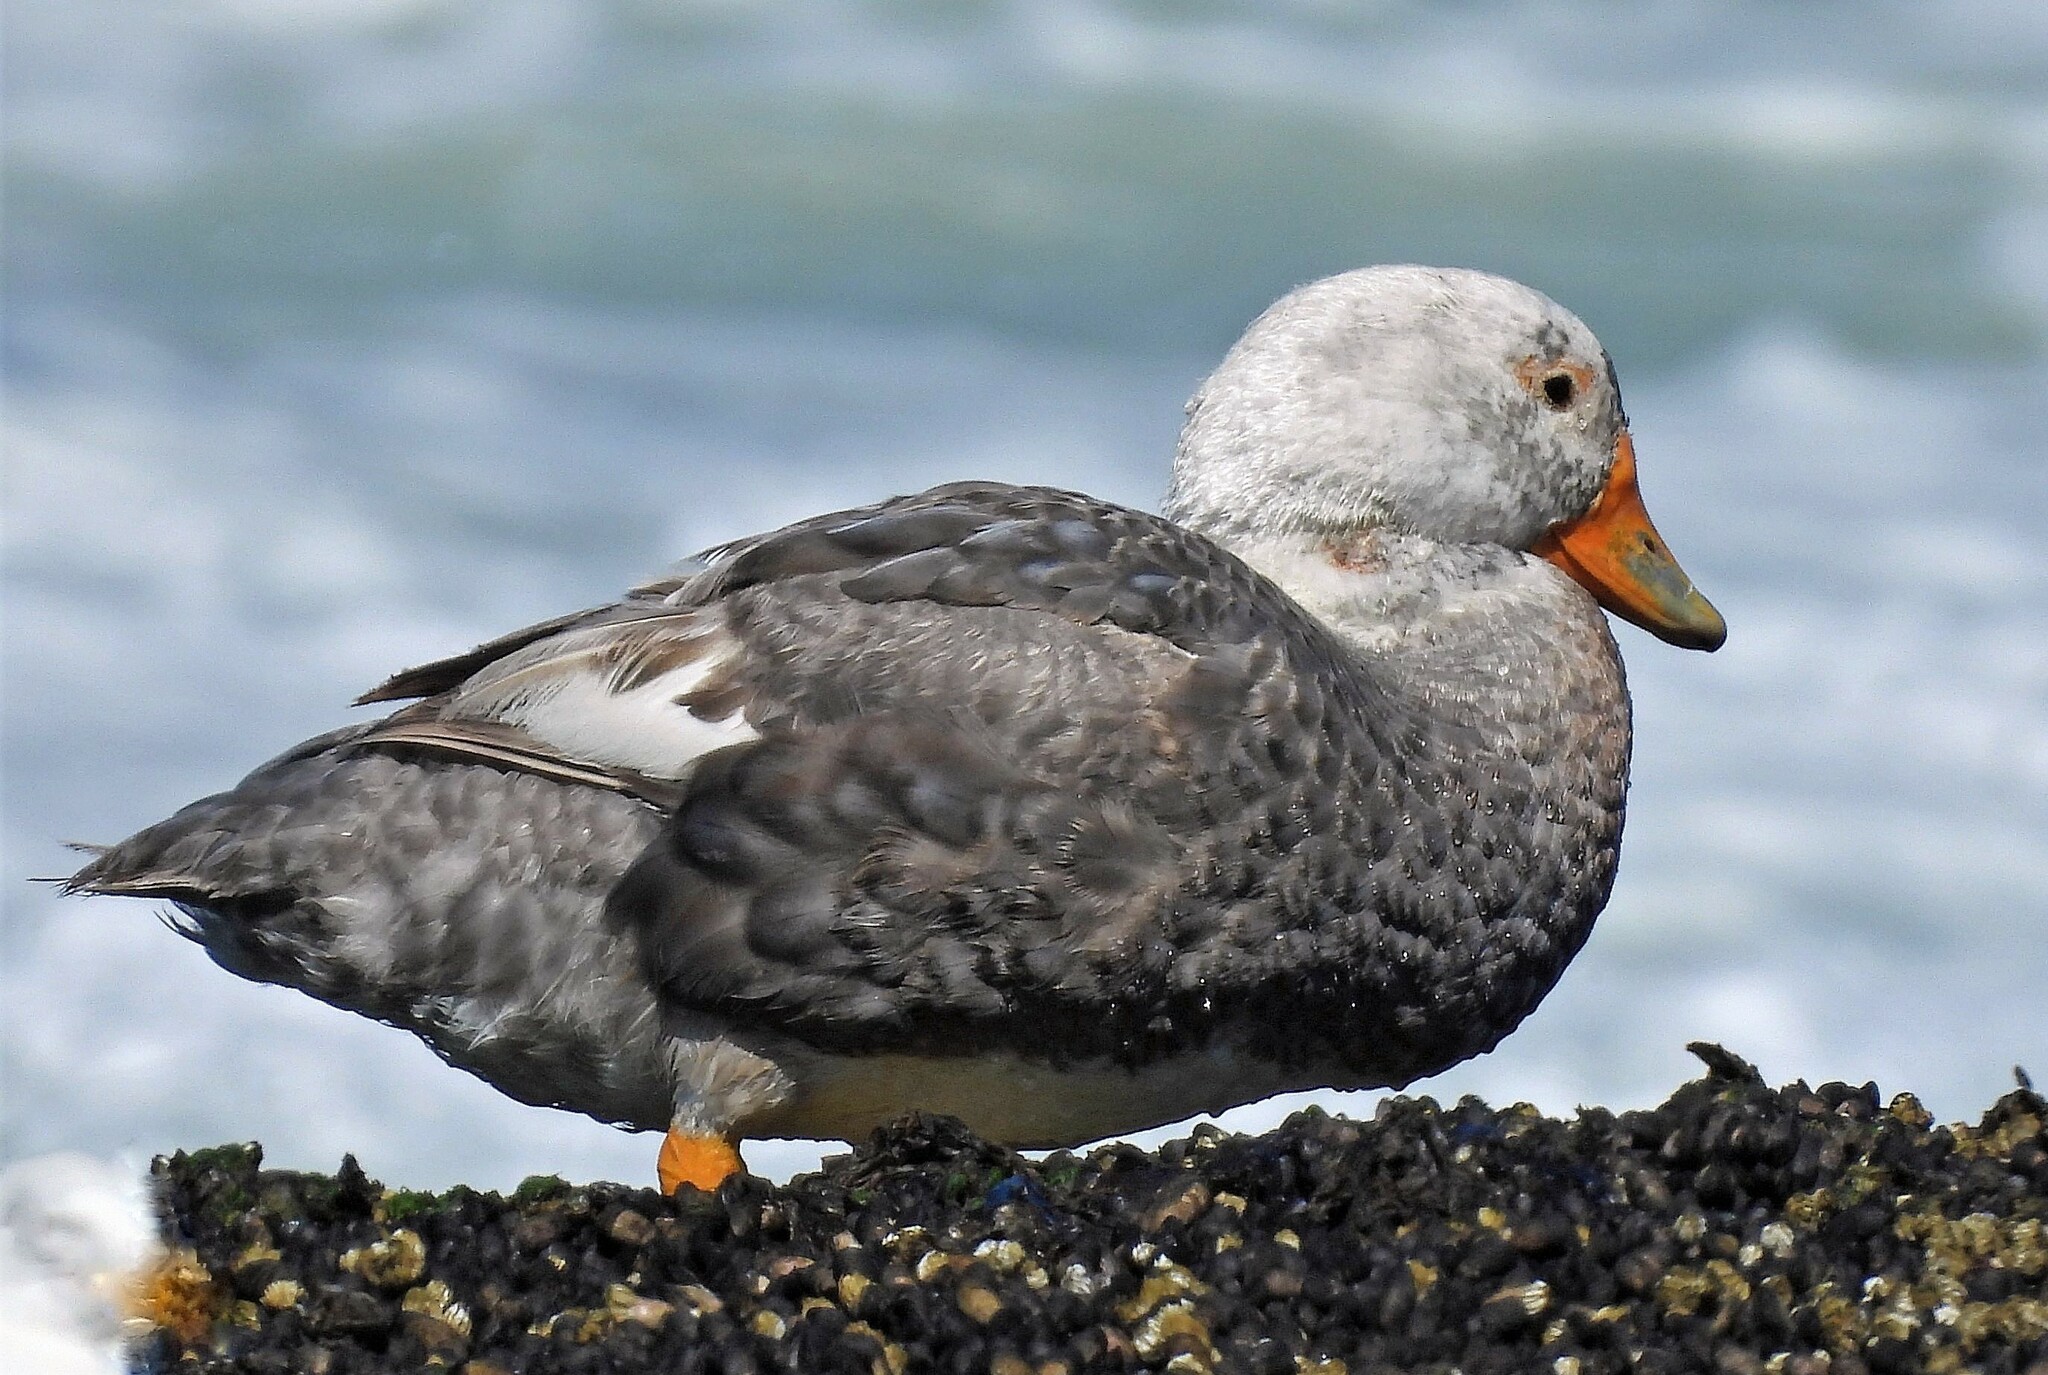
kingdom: Animalia
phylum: Chordata
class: Aves
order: Anseriformes
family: Anatidae
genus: Tachyeres
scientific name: Tachyeres leucocephalus
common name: Chubut steamer duck
